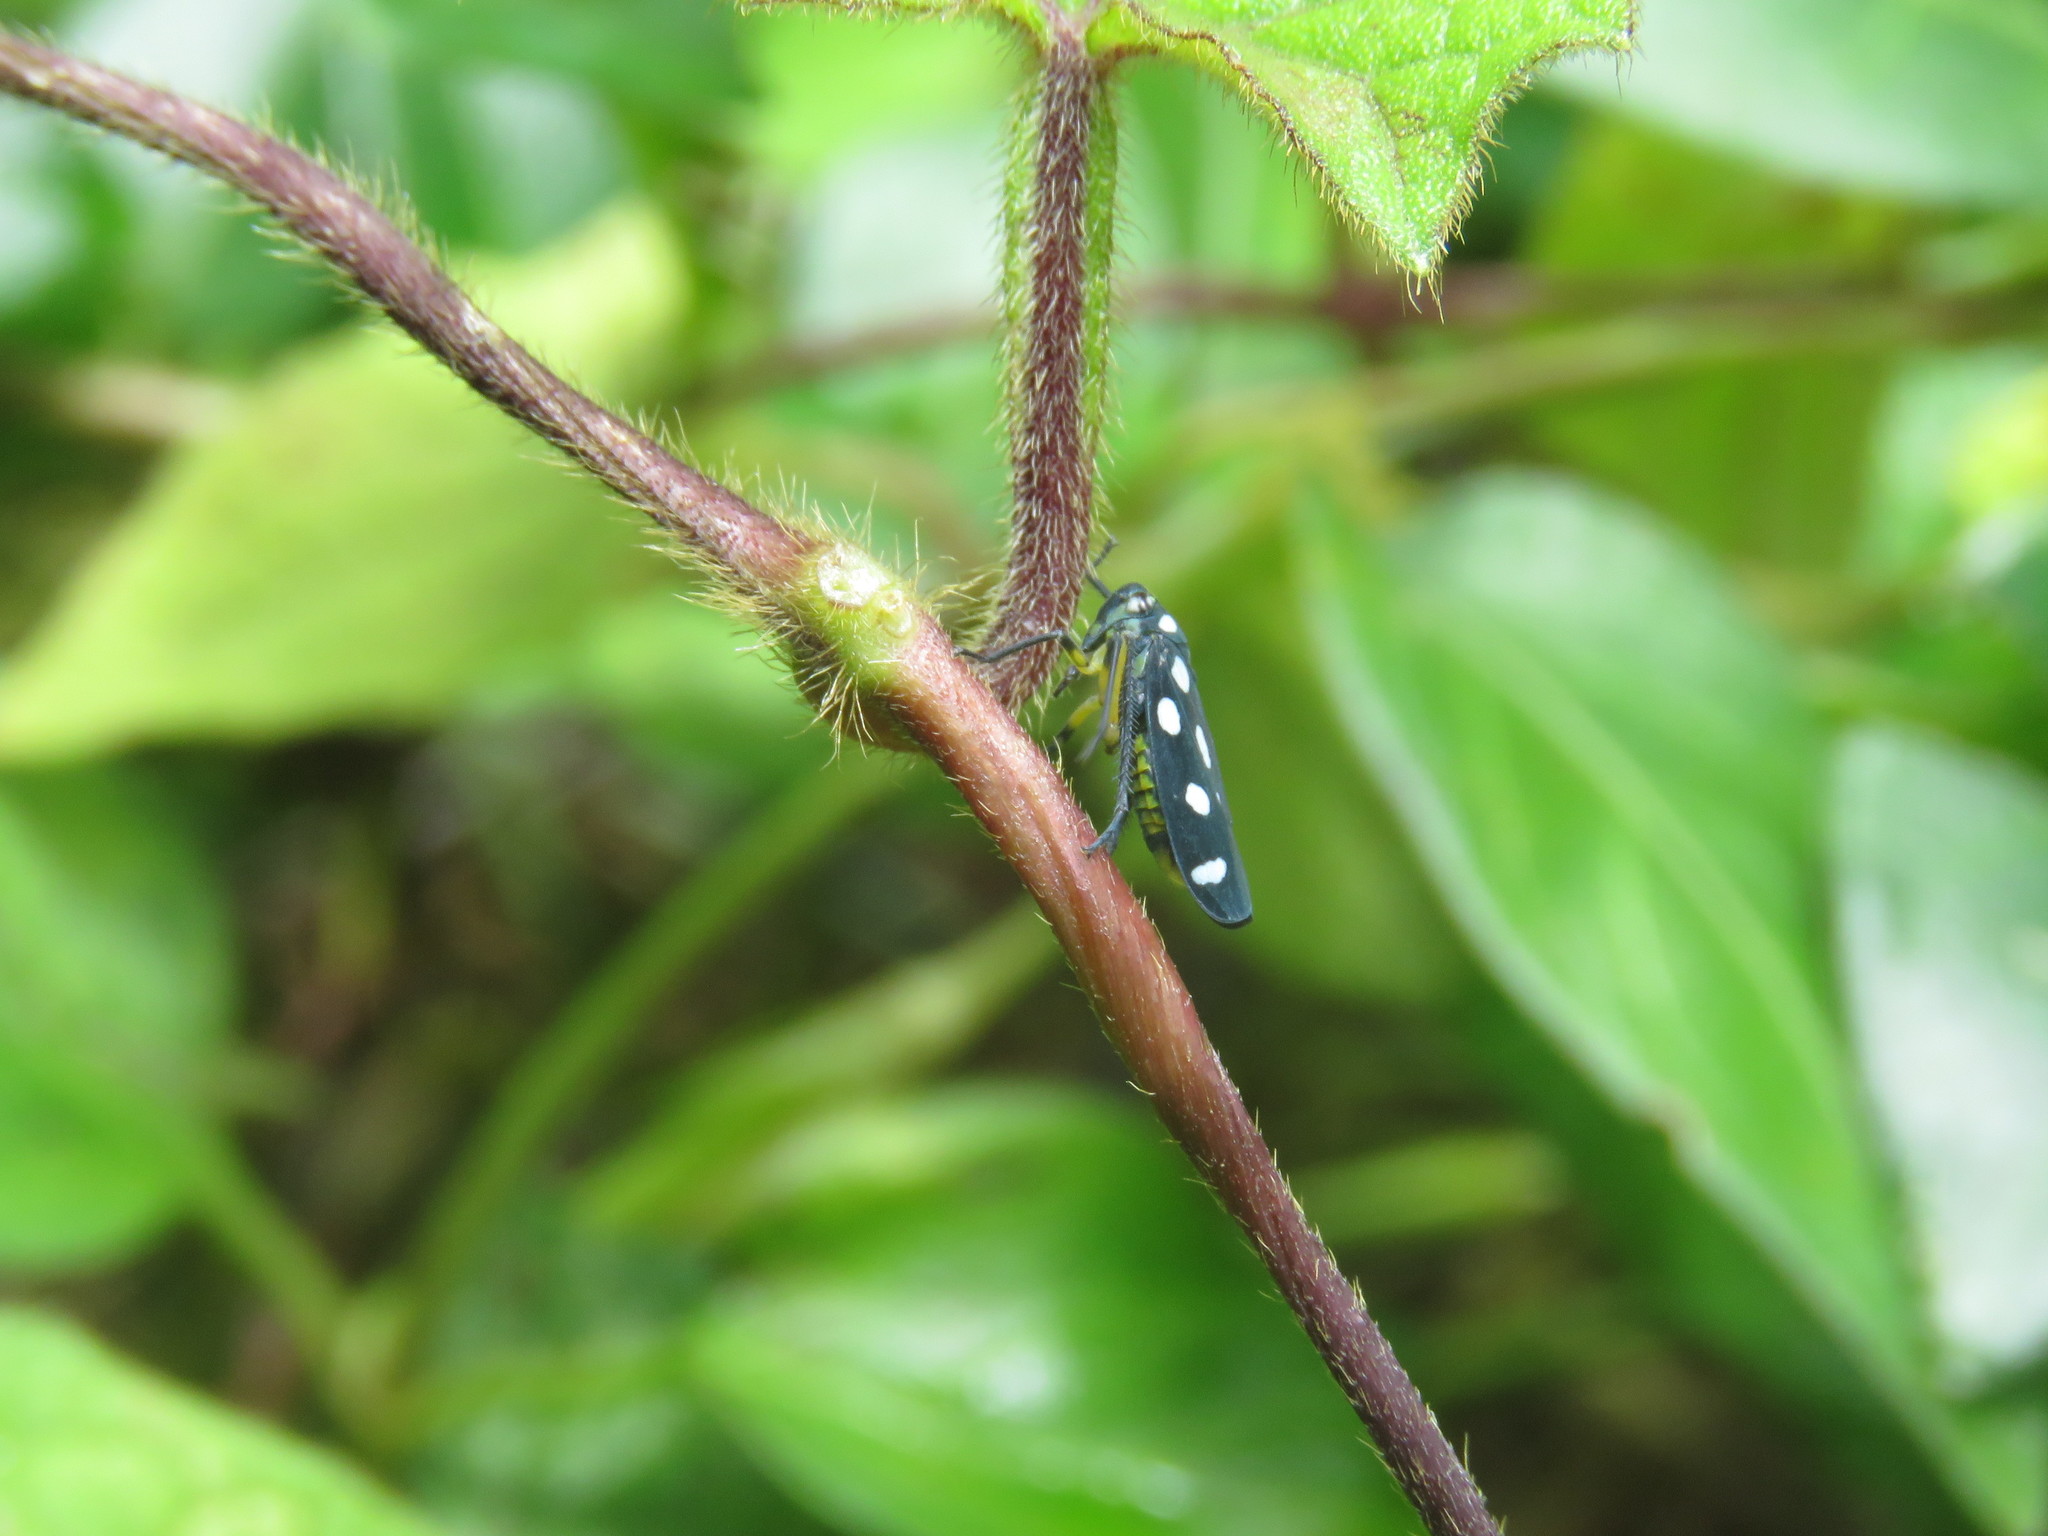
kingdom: Animalia
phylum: Arthropoda
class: Insecta
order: Hemiptera
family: Cicadellidae
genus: Stehlikiana
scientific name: Stehlikiana crassa
